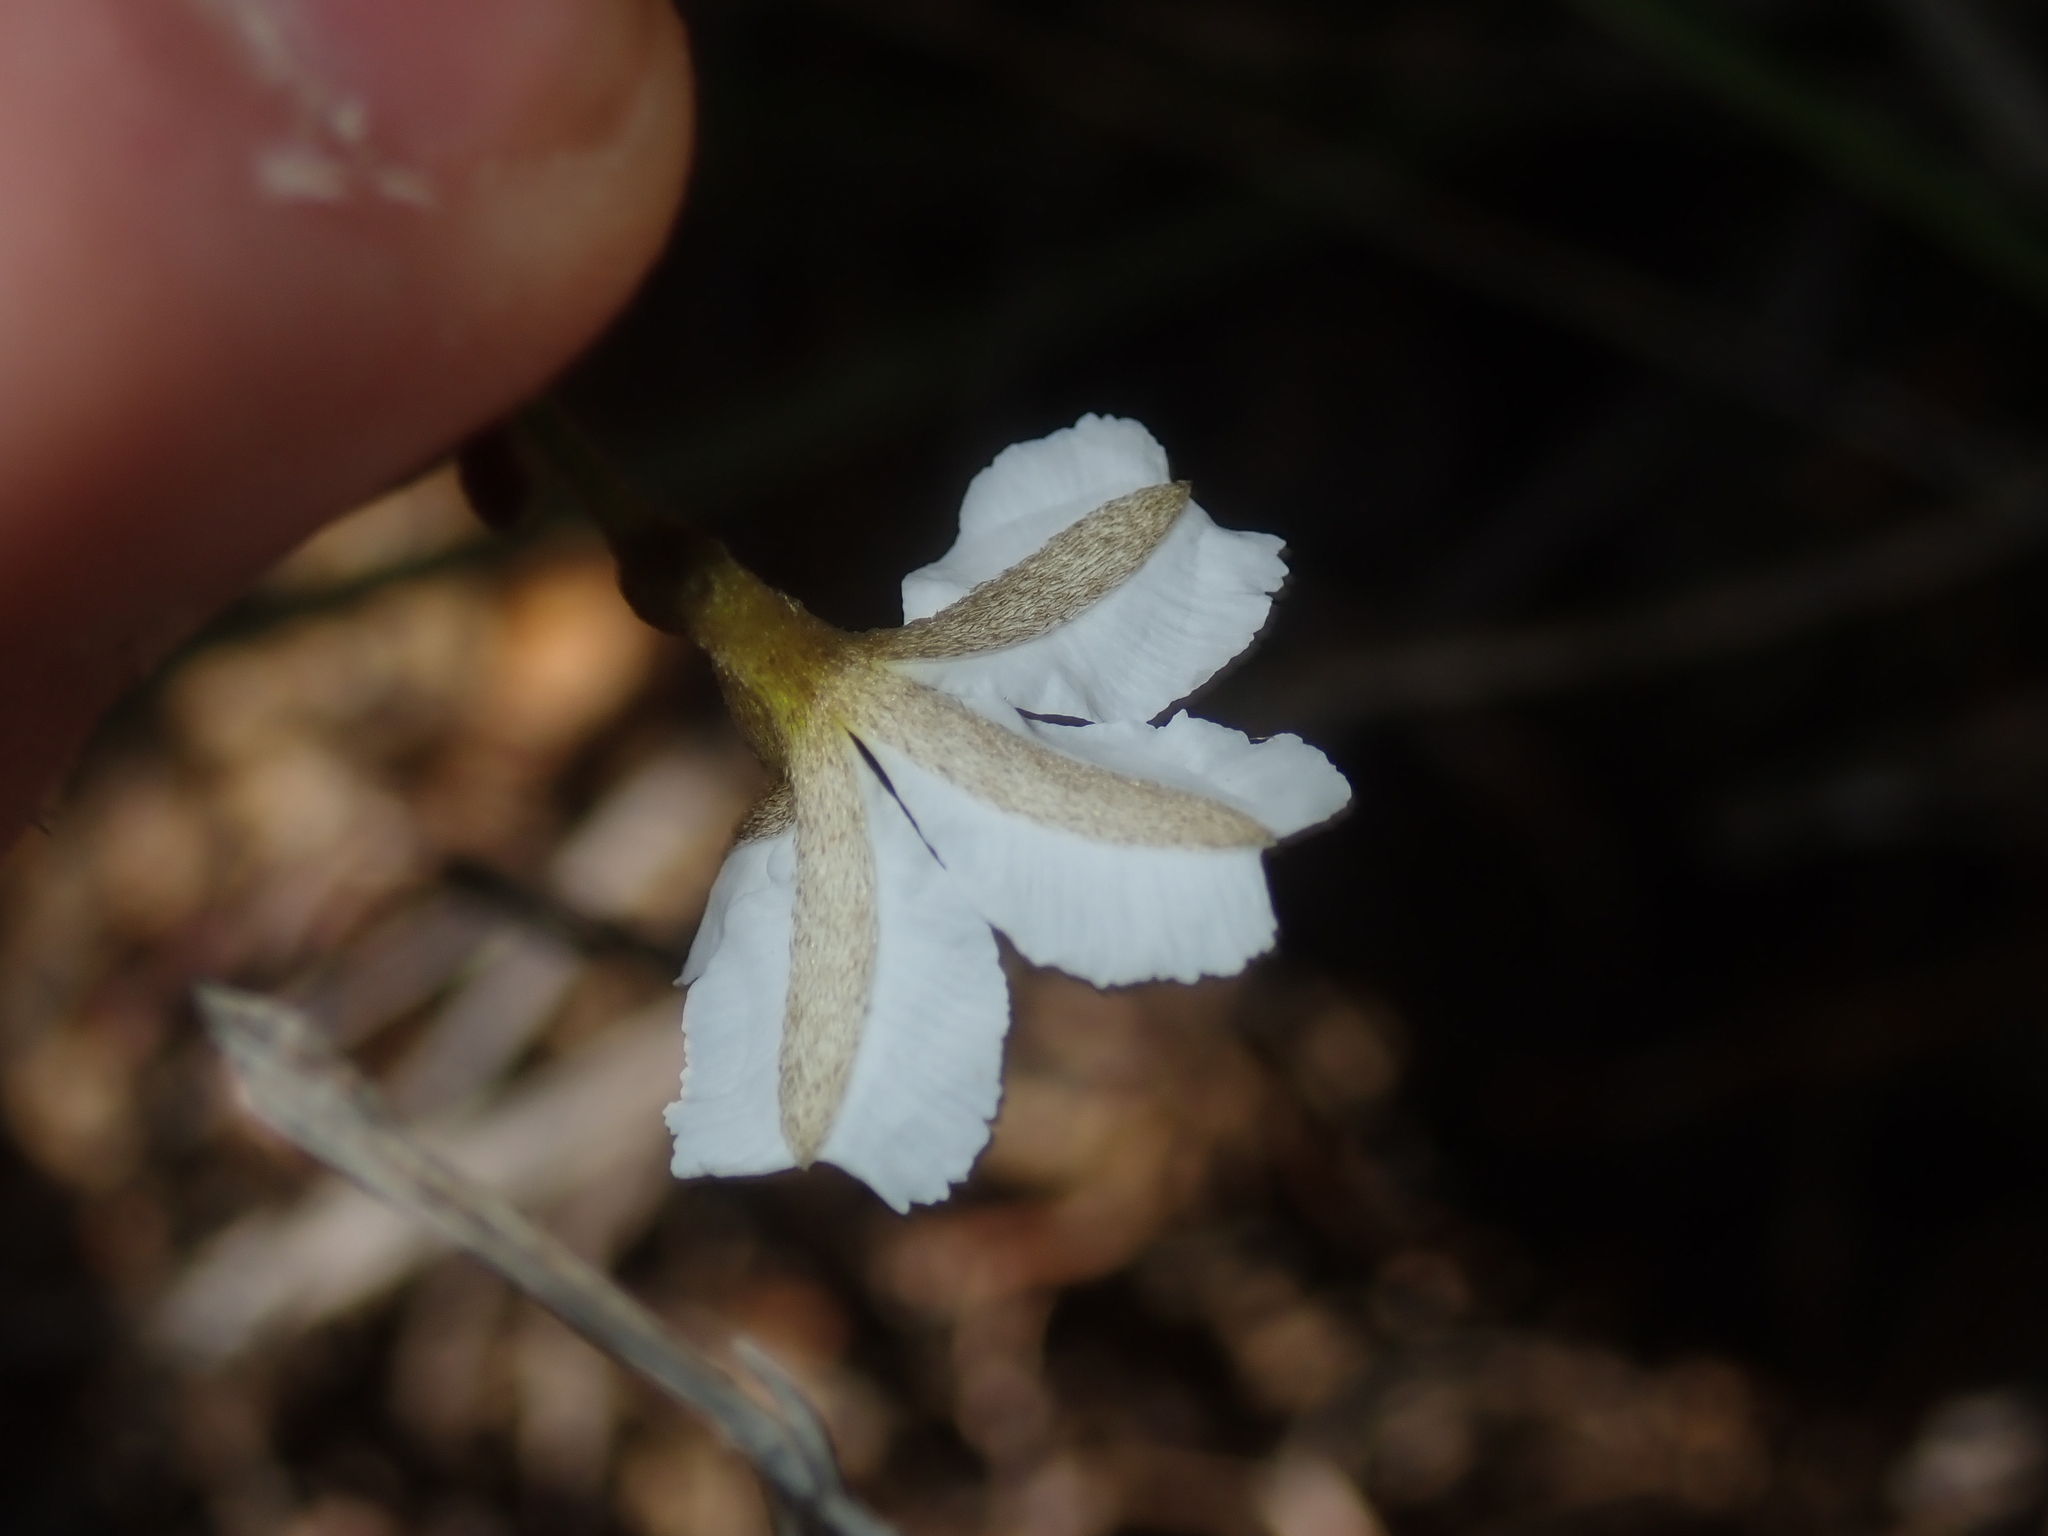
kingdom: Plantae
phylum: Tracheophyta
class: Magnoliopsida
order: Asterales
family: Goodeniaceae
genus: Dampiera
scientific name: Dampiera lindleyi
